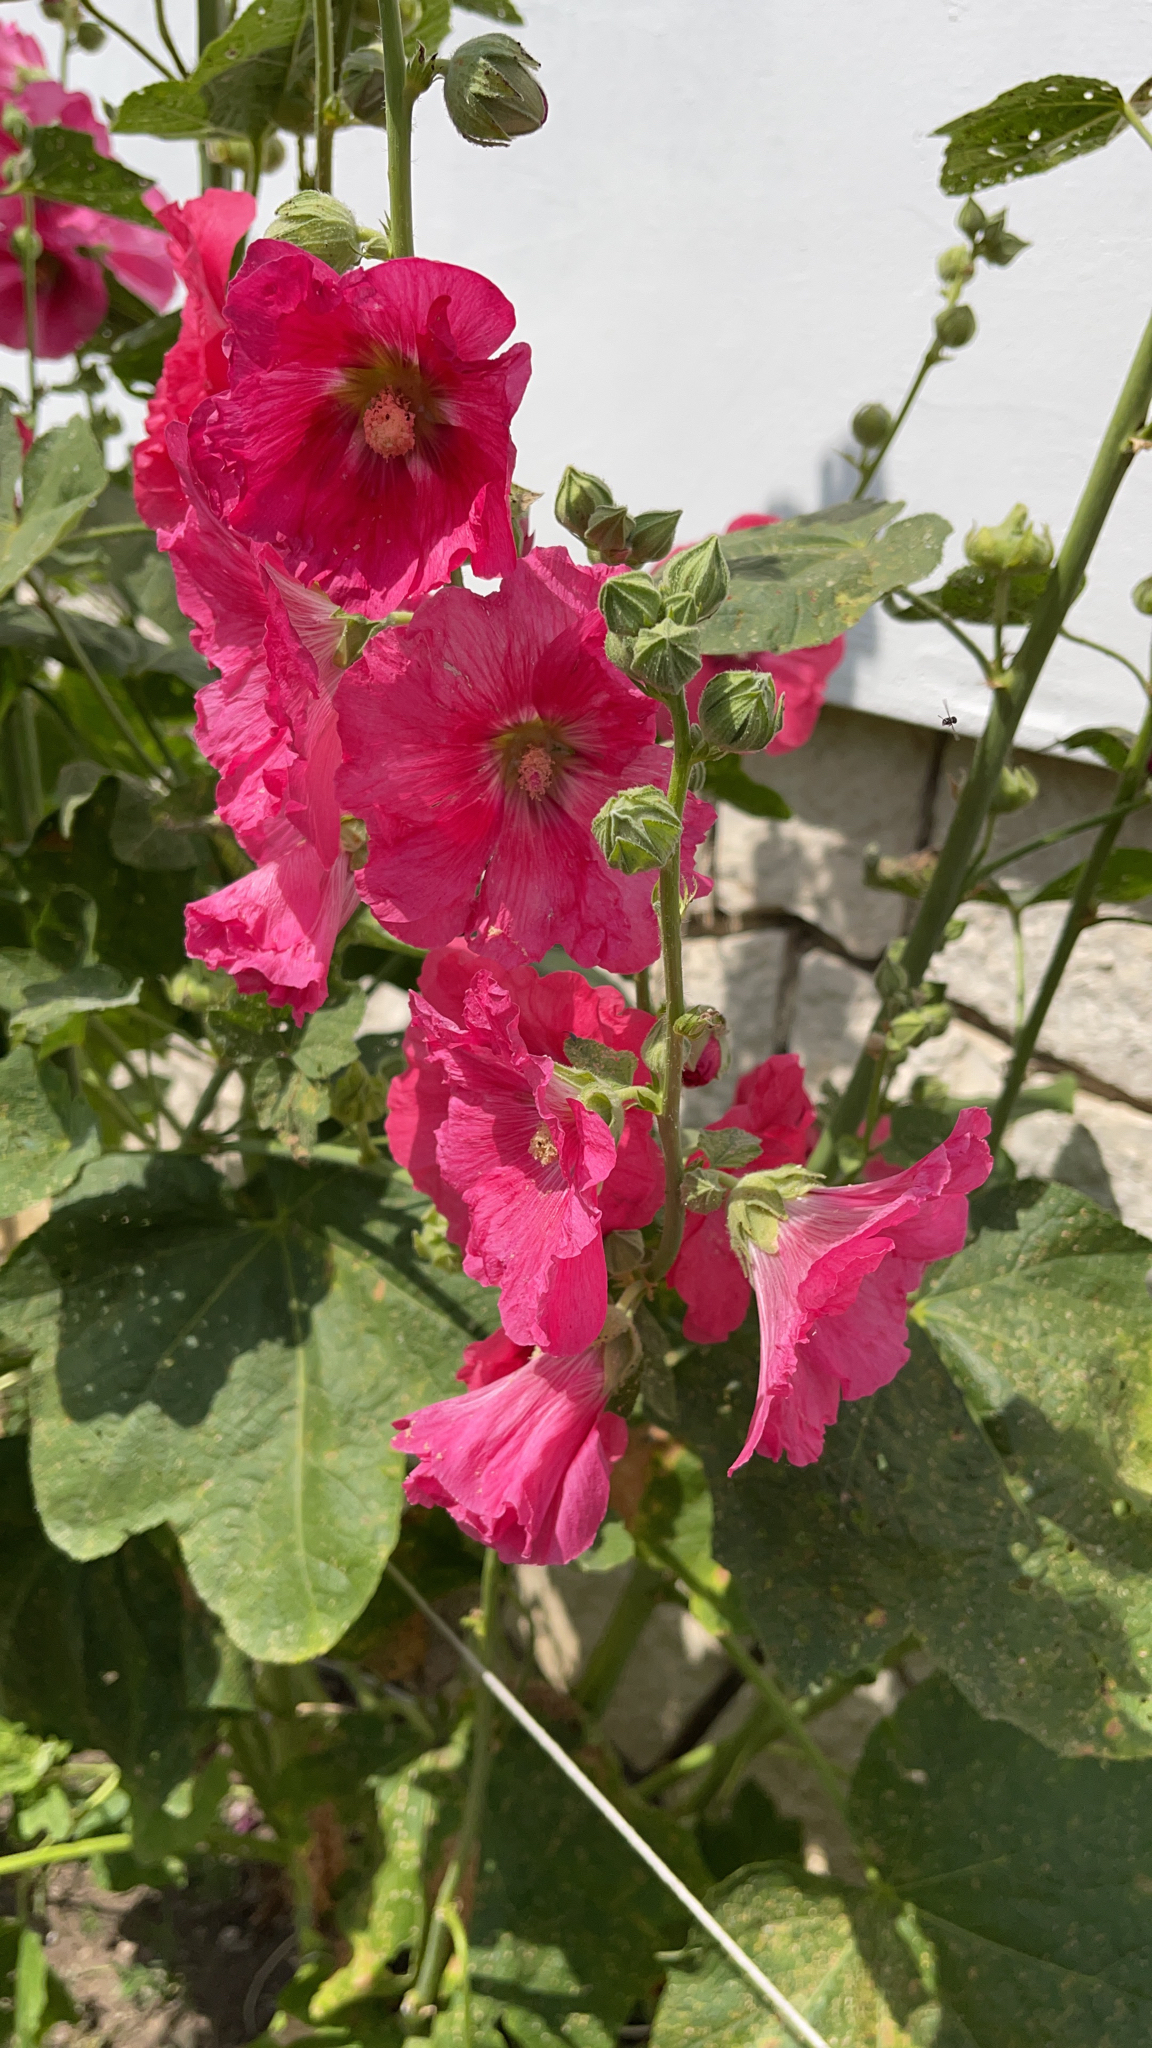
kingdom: Plantae
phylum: Tracheophyta
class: Magnoliopsida
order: Malvales
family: Malvaceae
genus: Alcea
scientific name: Alcea rosea
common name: Hollyhock
